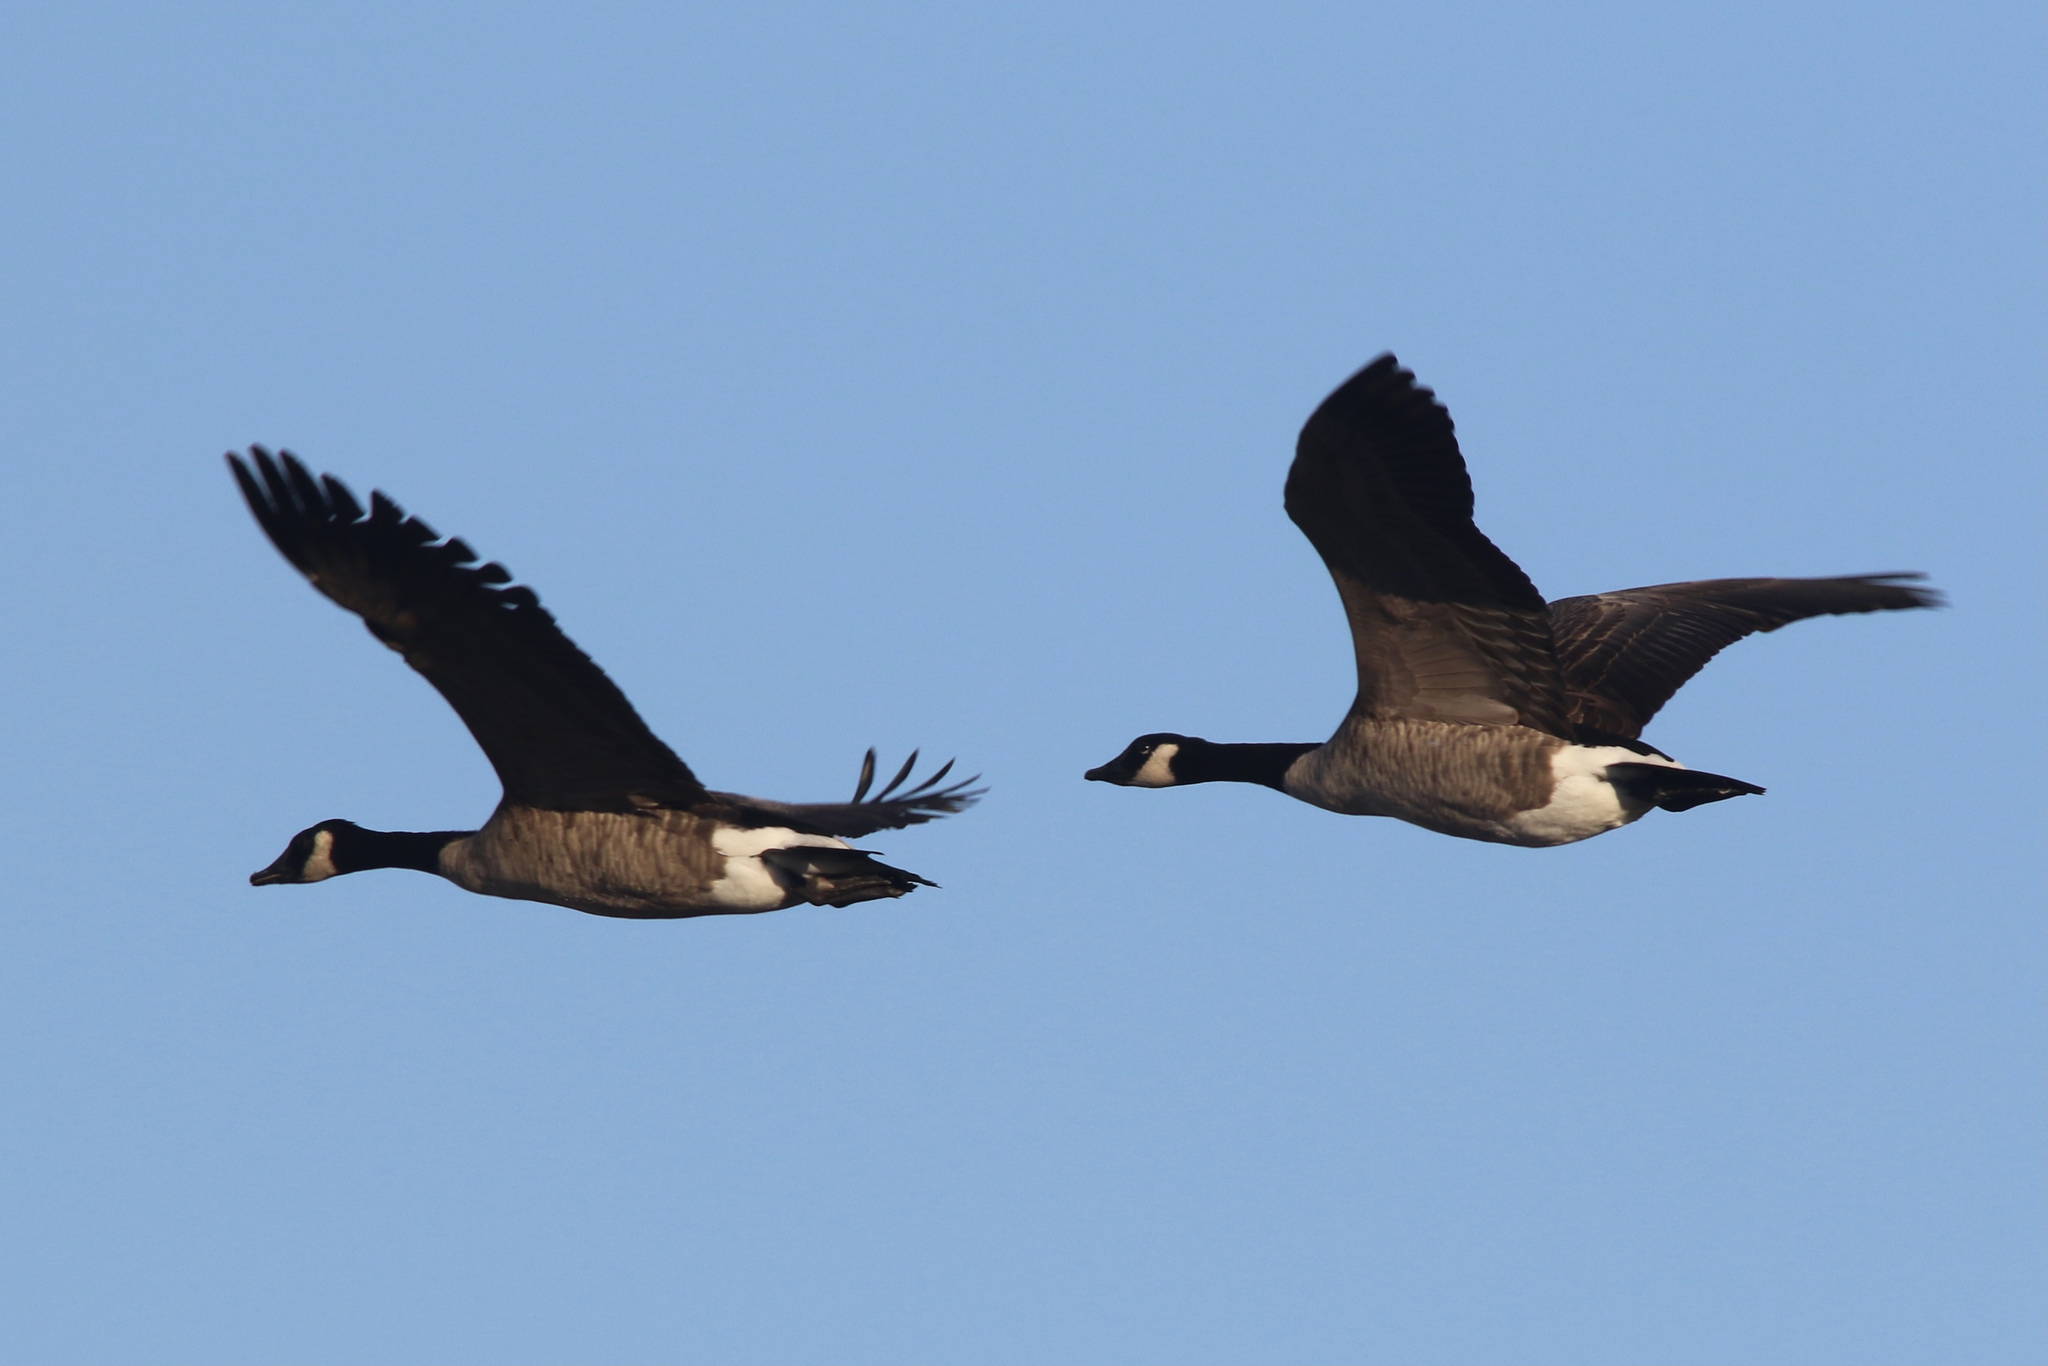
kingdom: Animalia
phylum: Chordata
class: Aves
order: Anseriformes
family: Anatidae
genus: Branta
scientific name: Branta canadensis
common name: Canada goose
